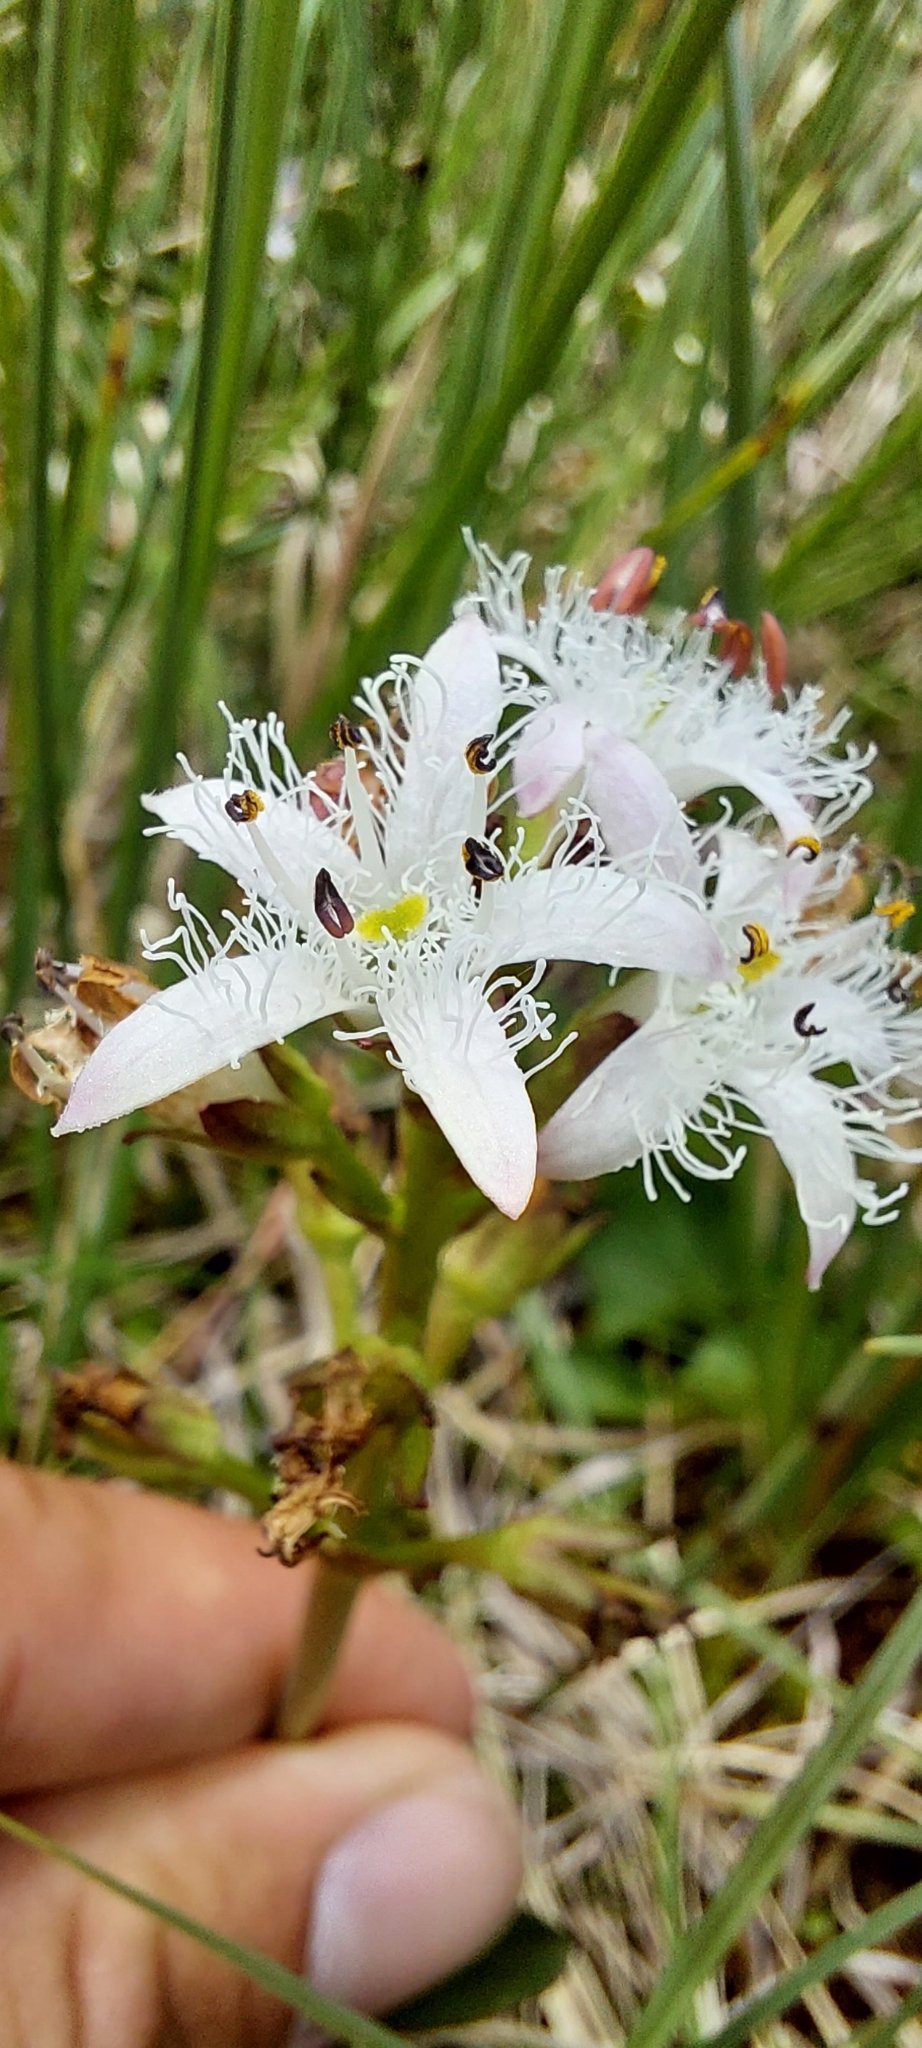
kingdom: Plantae
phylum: Tracheophyta
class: Magnoliopsida
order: Asterales
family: Menyanthaceae
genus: Menyanthes
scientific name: Menyanthes trifoliata
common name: Bogbean
